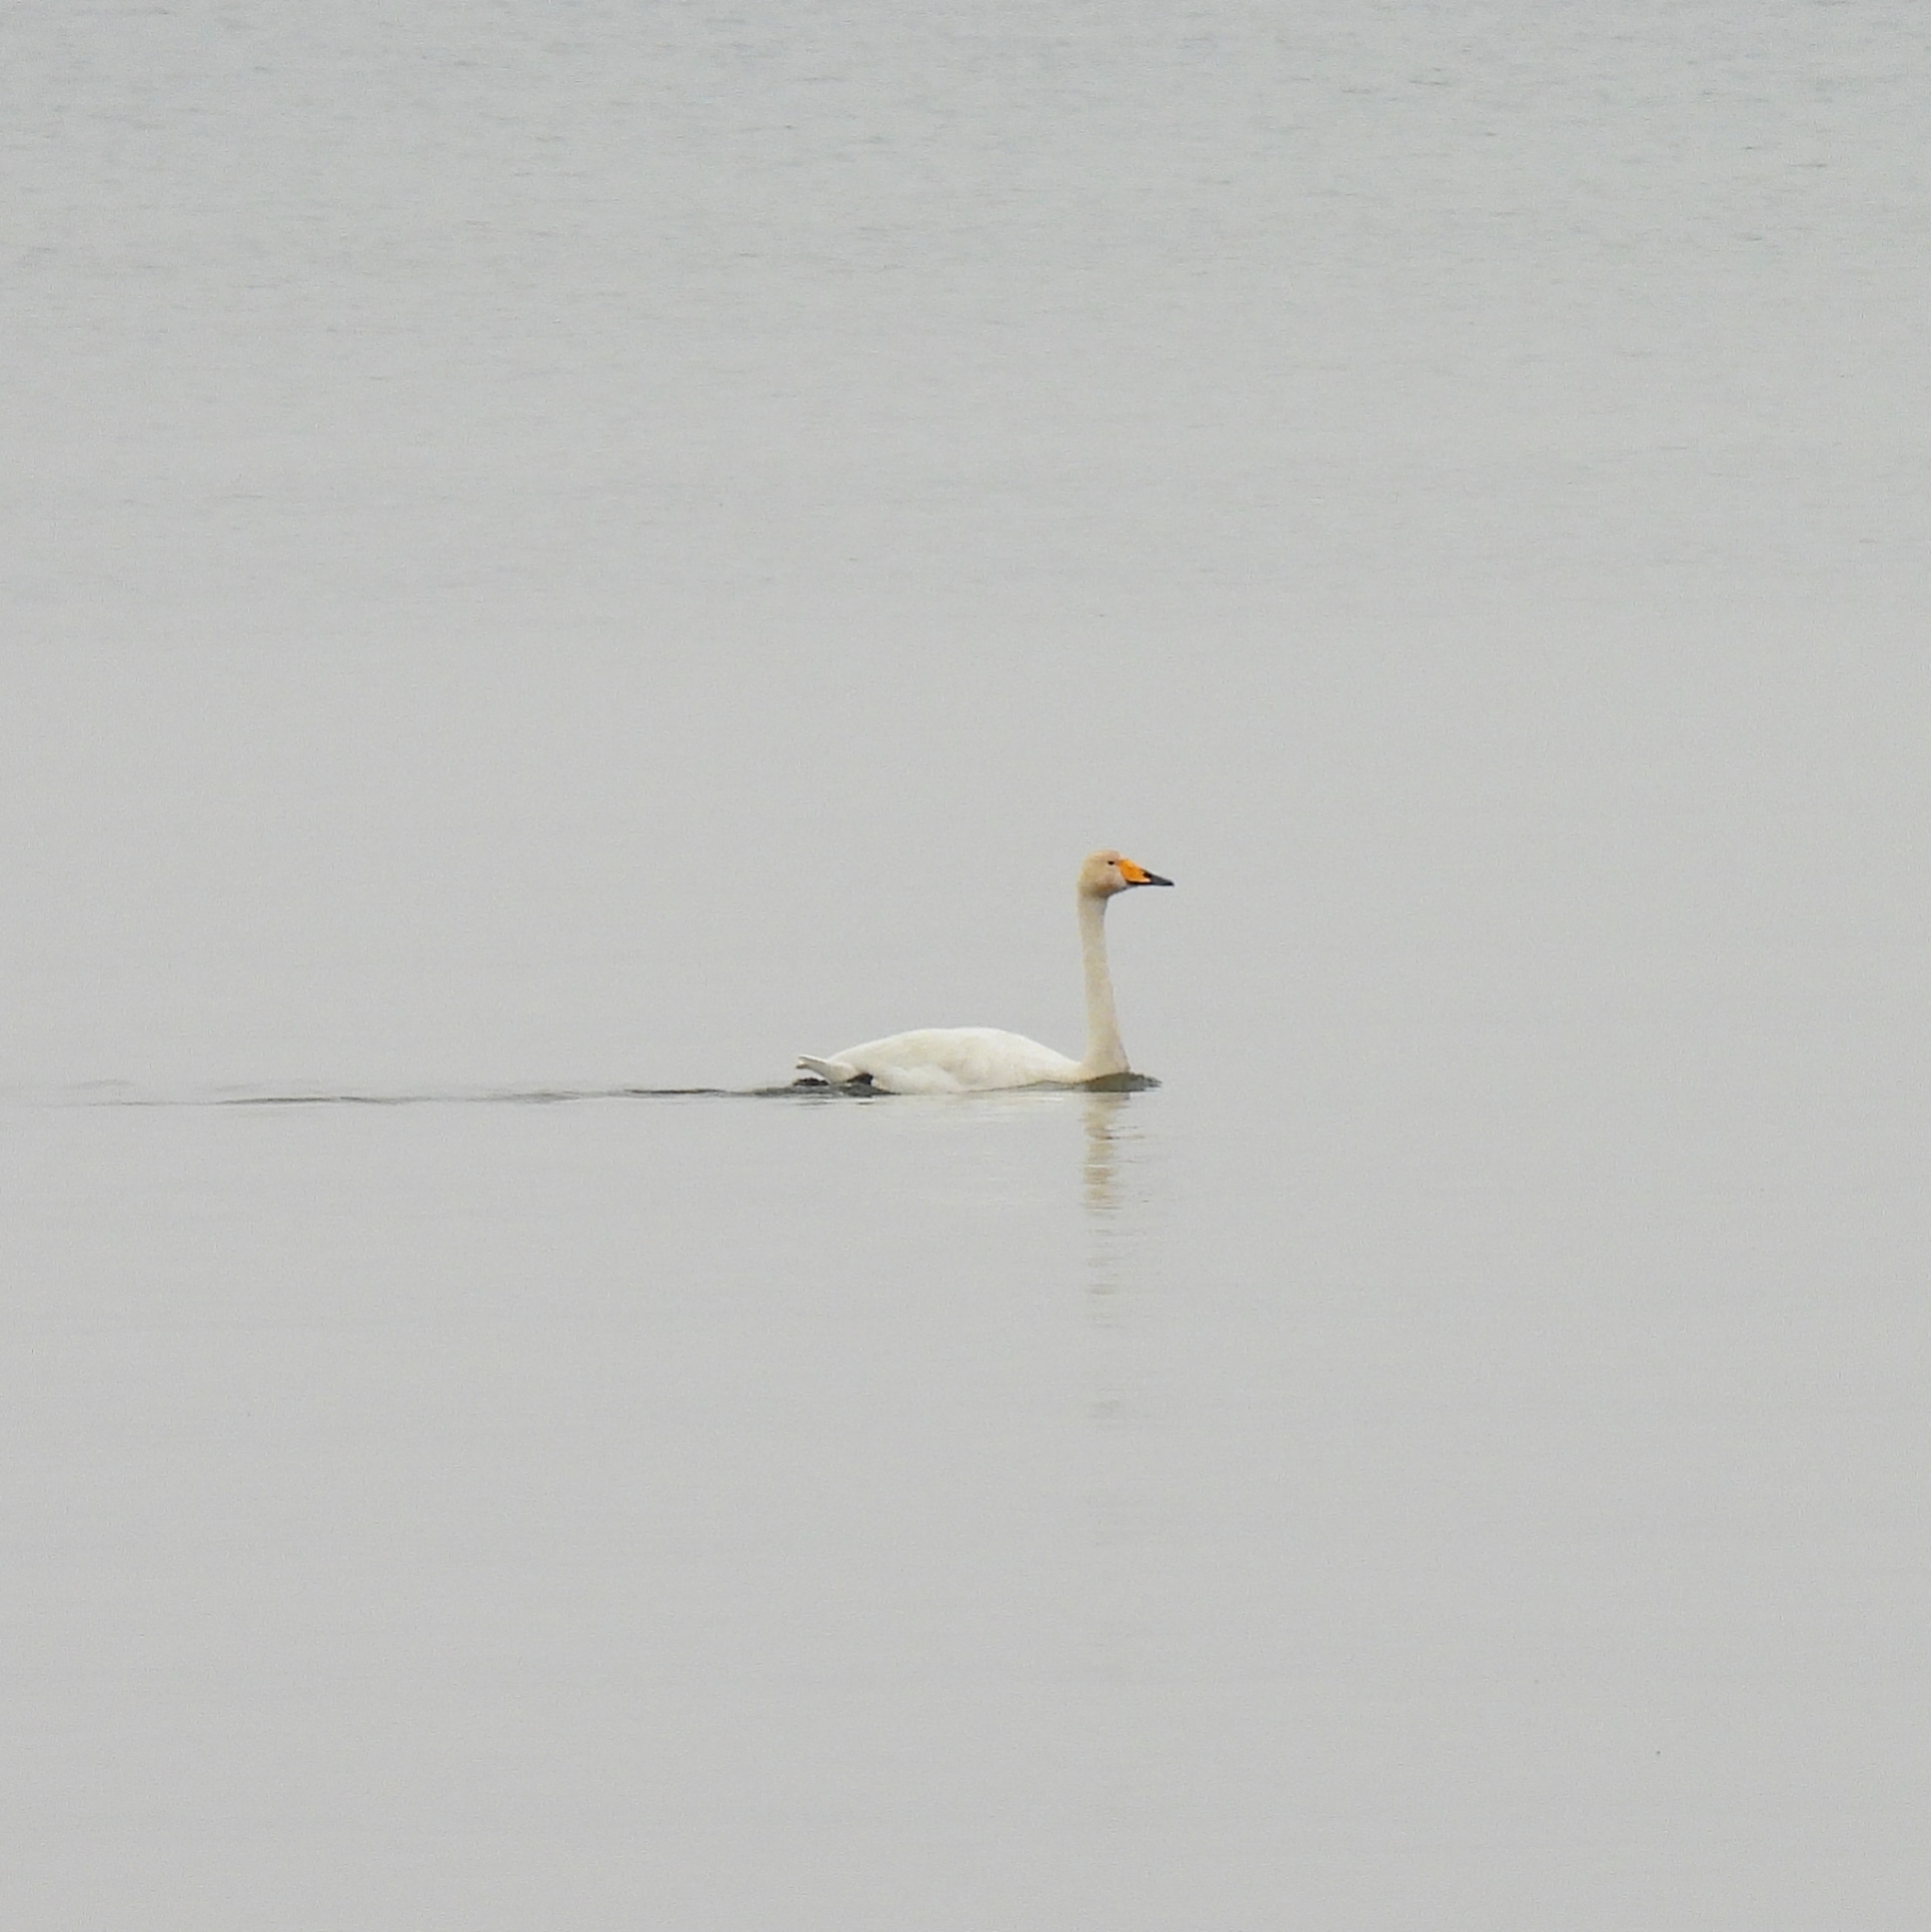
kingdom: Animalia
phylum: Chordata
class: Aves
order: Anseriformes
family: Anatidae
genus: Cygnus
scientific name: Cygnus cygnus
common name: Whooper swan
